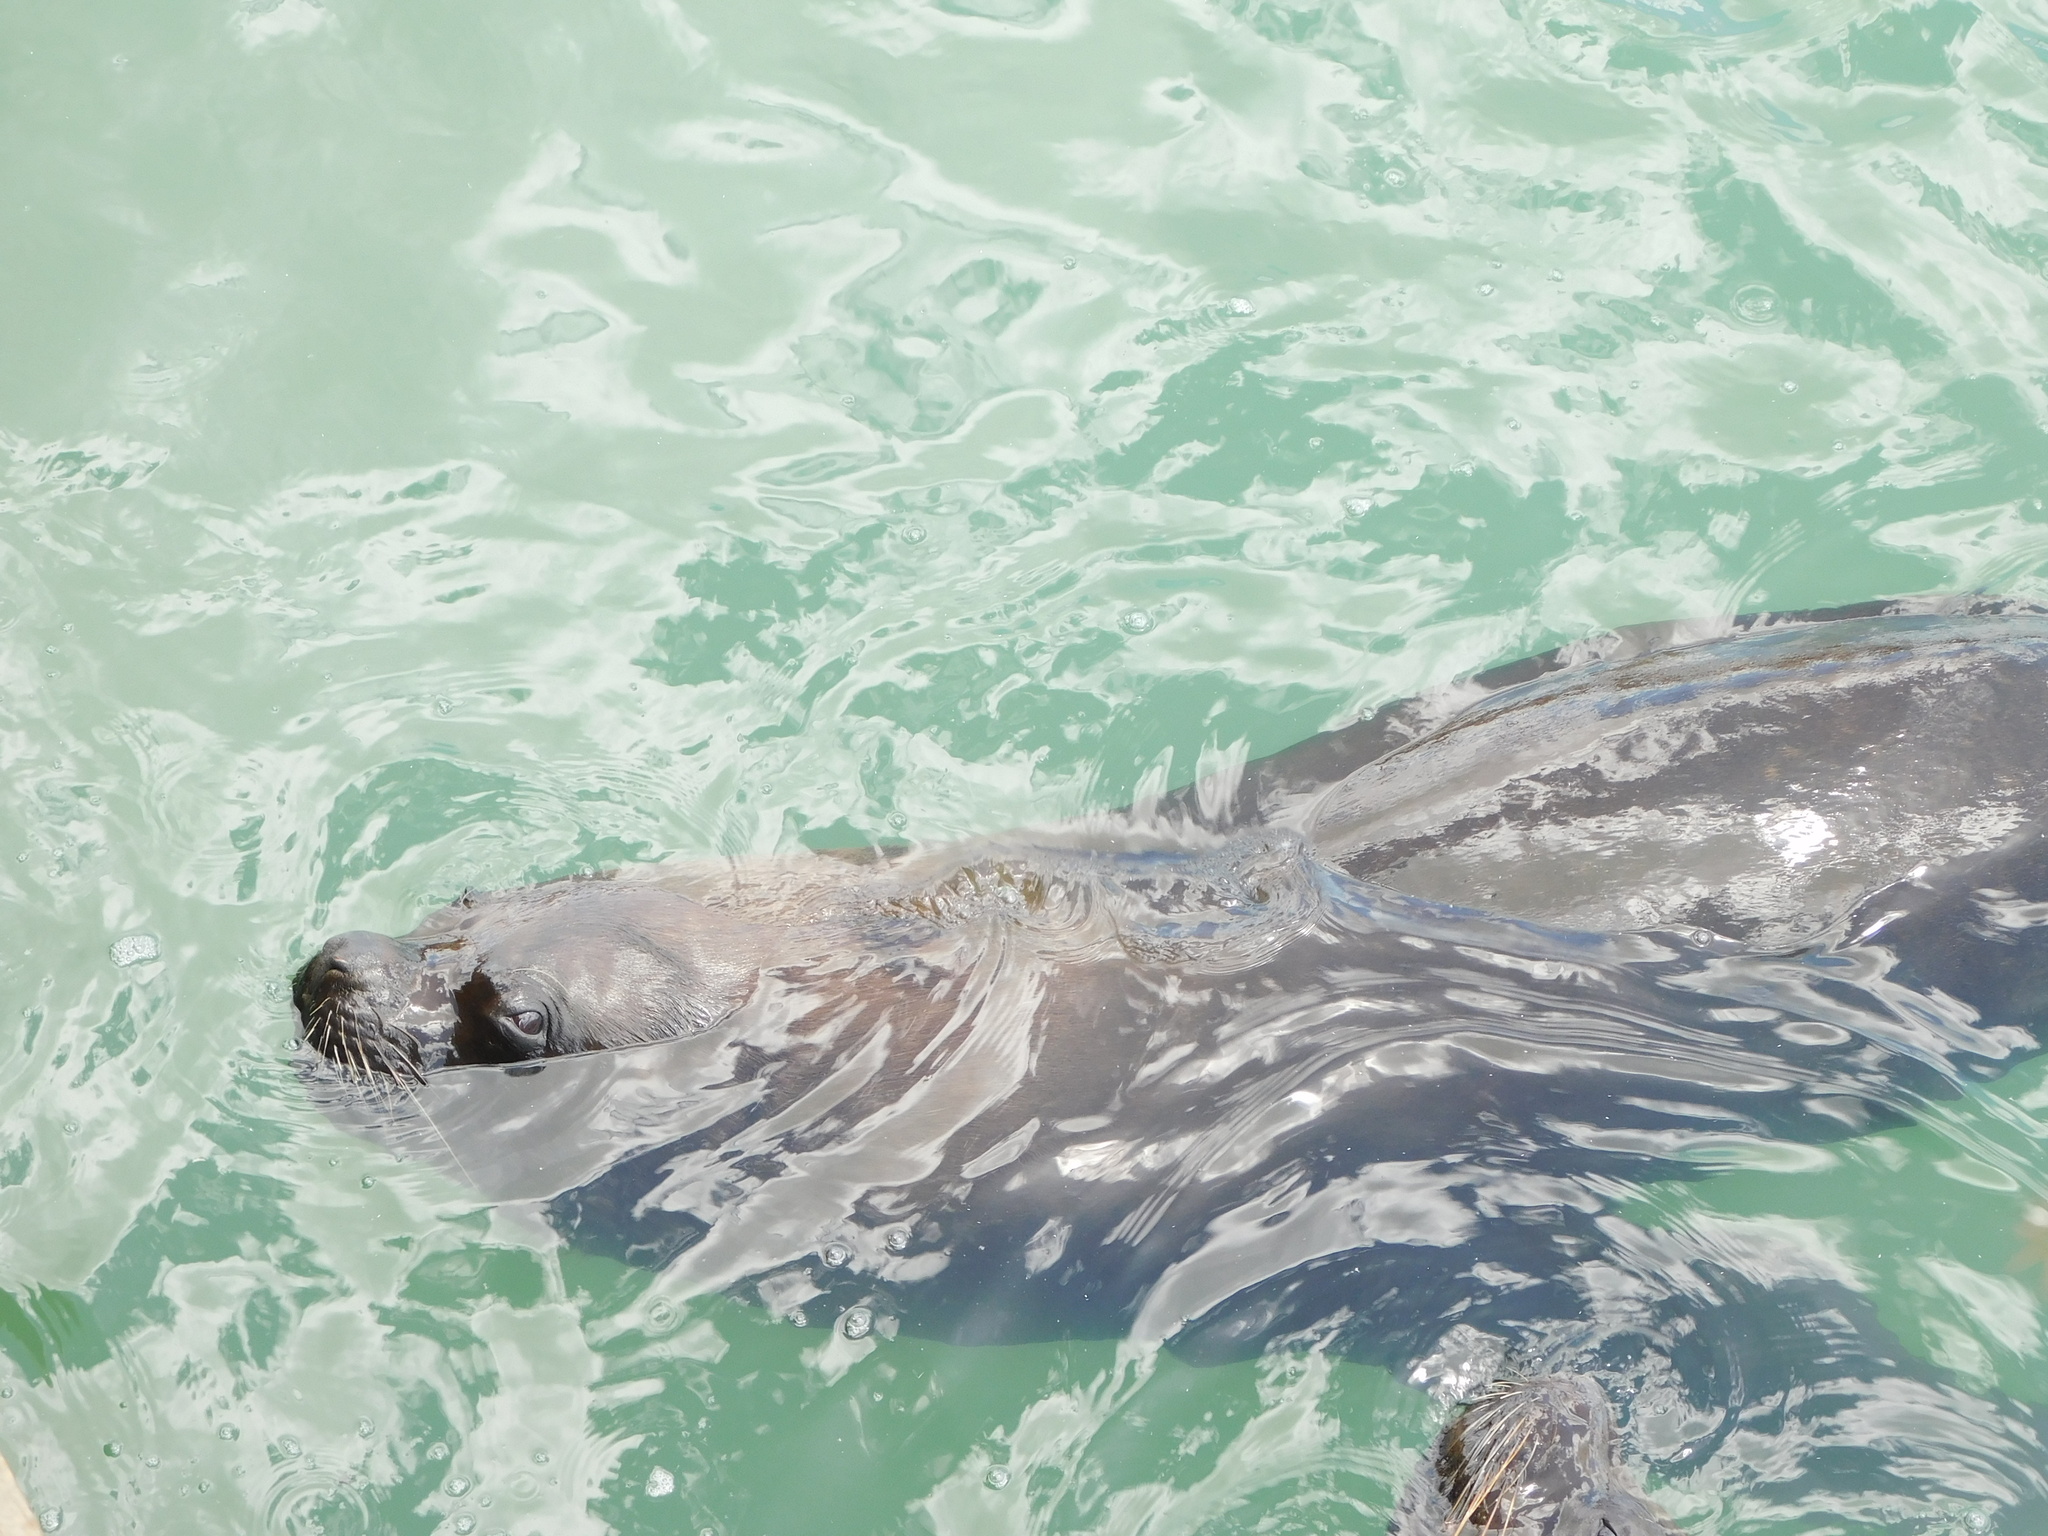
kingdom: Animalia
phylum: Chordata
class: Mammalia
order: Carnivora
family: Otariidae
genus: Otaria
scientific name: Otaria byronia
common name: South american sea lion
